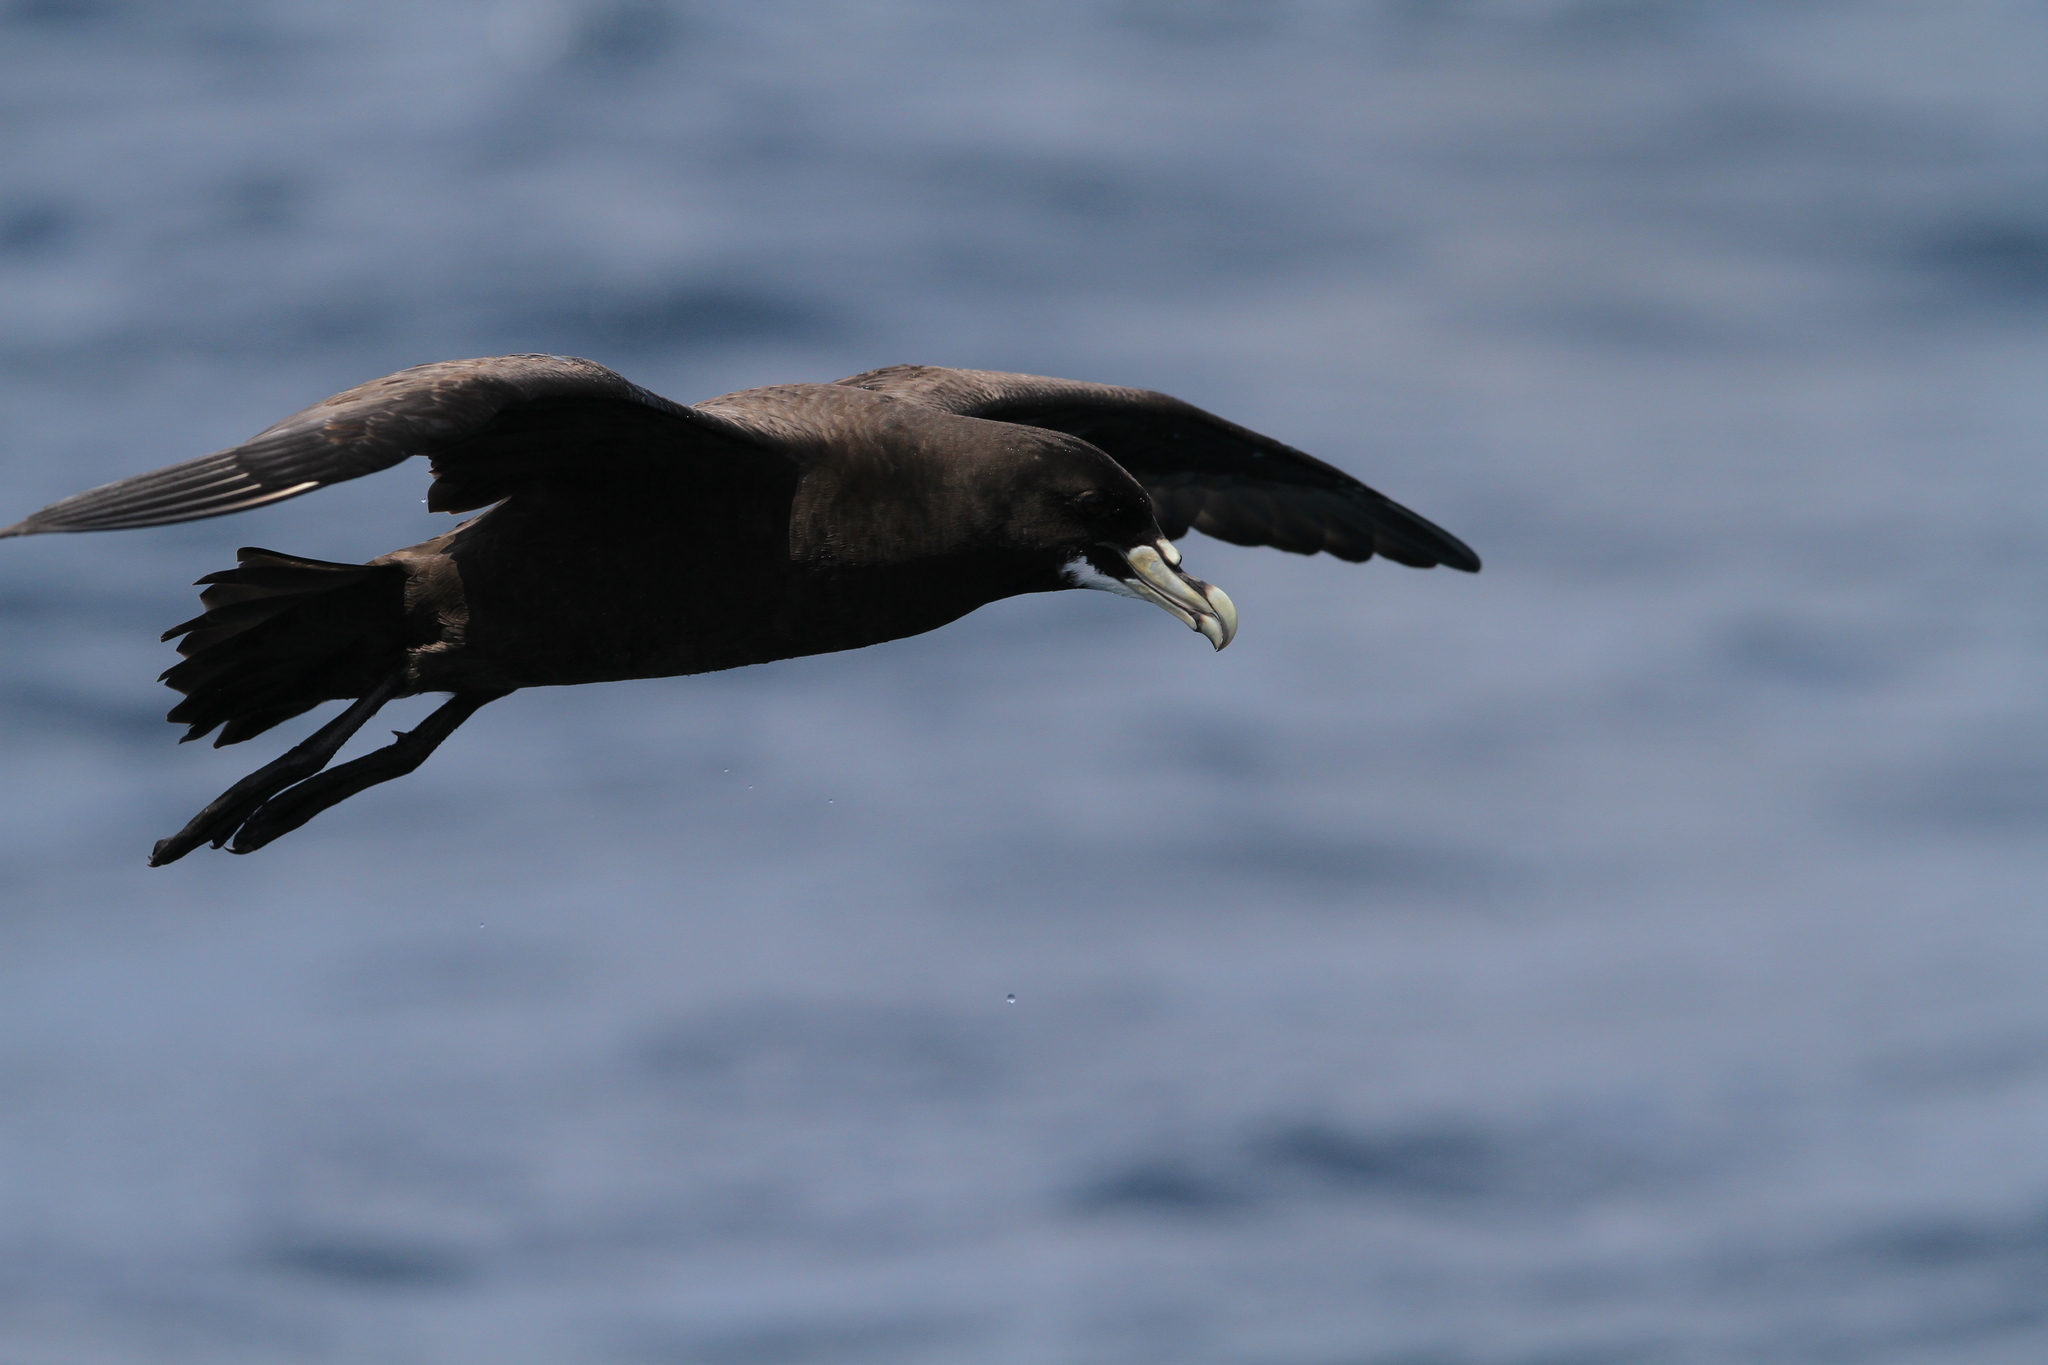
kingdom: Animalia
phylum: Chordata
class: Aves
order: Procellariiformes
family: Procellariidae
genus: Procellaria
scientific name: Procellaria aequinoctialis
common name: White-chinned petrel
